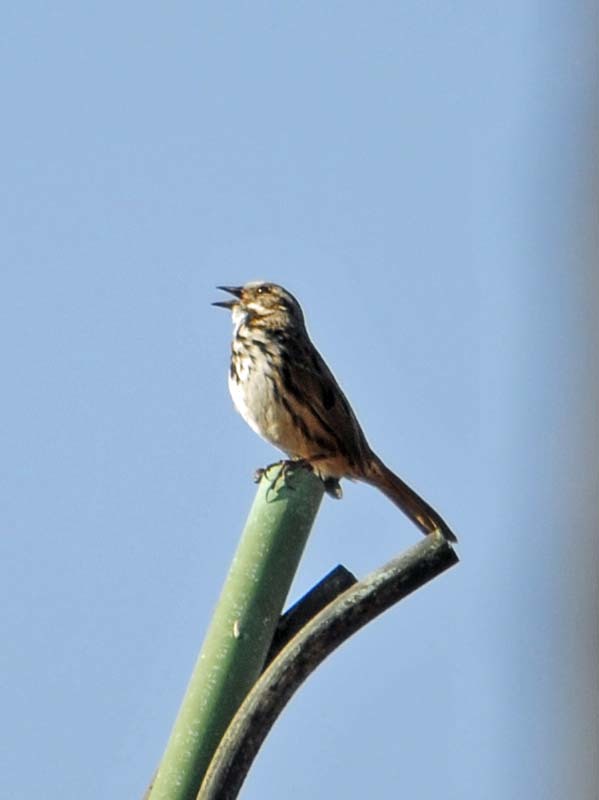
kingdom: Animalia
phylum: Chordata
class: Aves
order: Passeriformes
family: Passerellidae
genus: Melospiza
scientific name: Melospiza melodia
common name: Song sparrow
